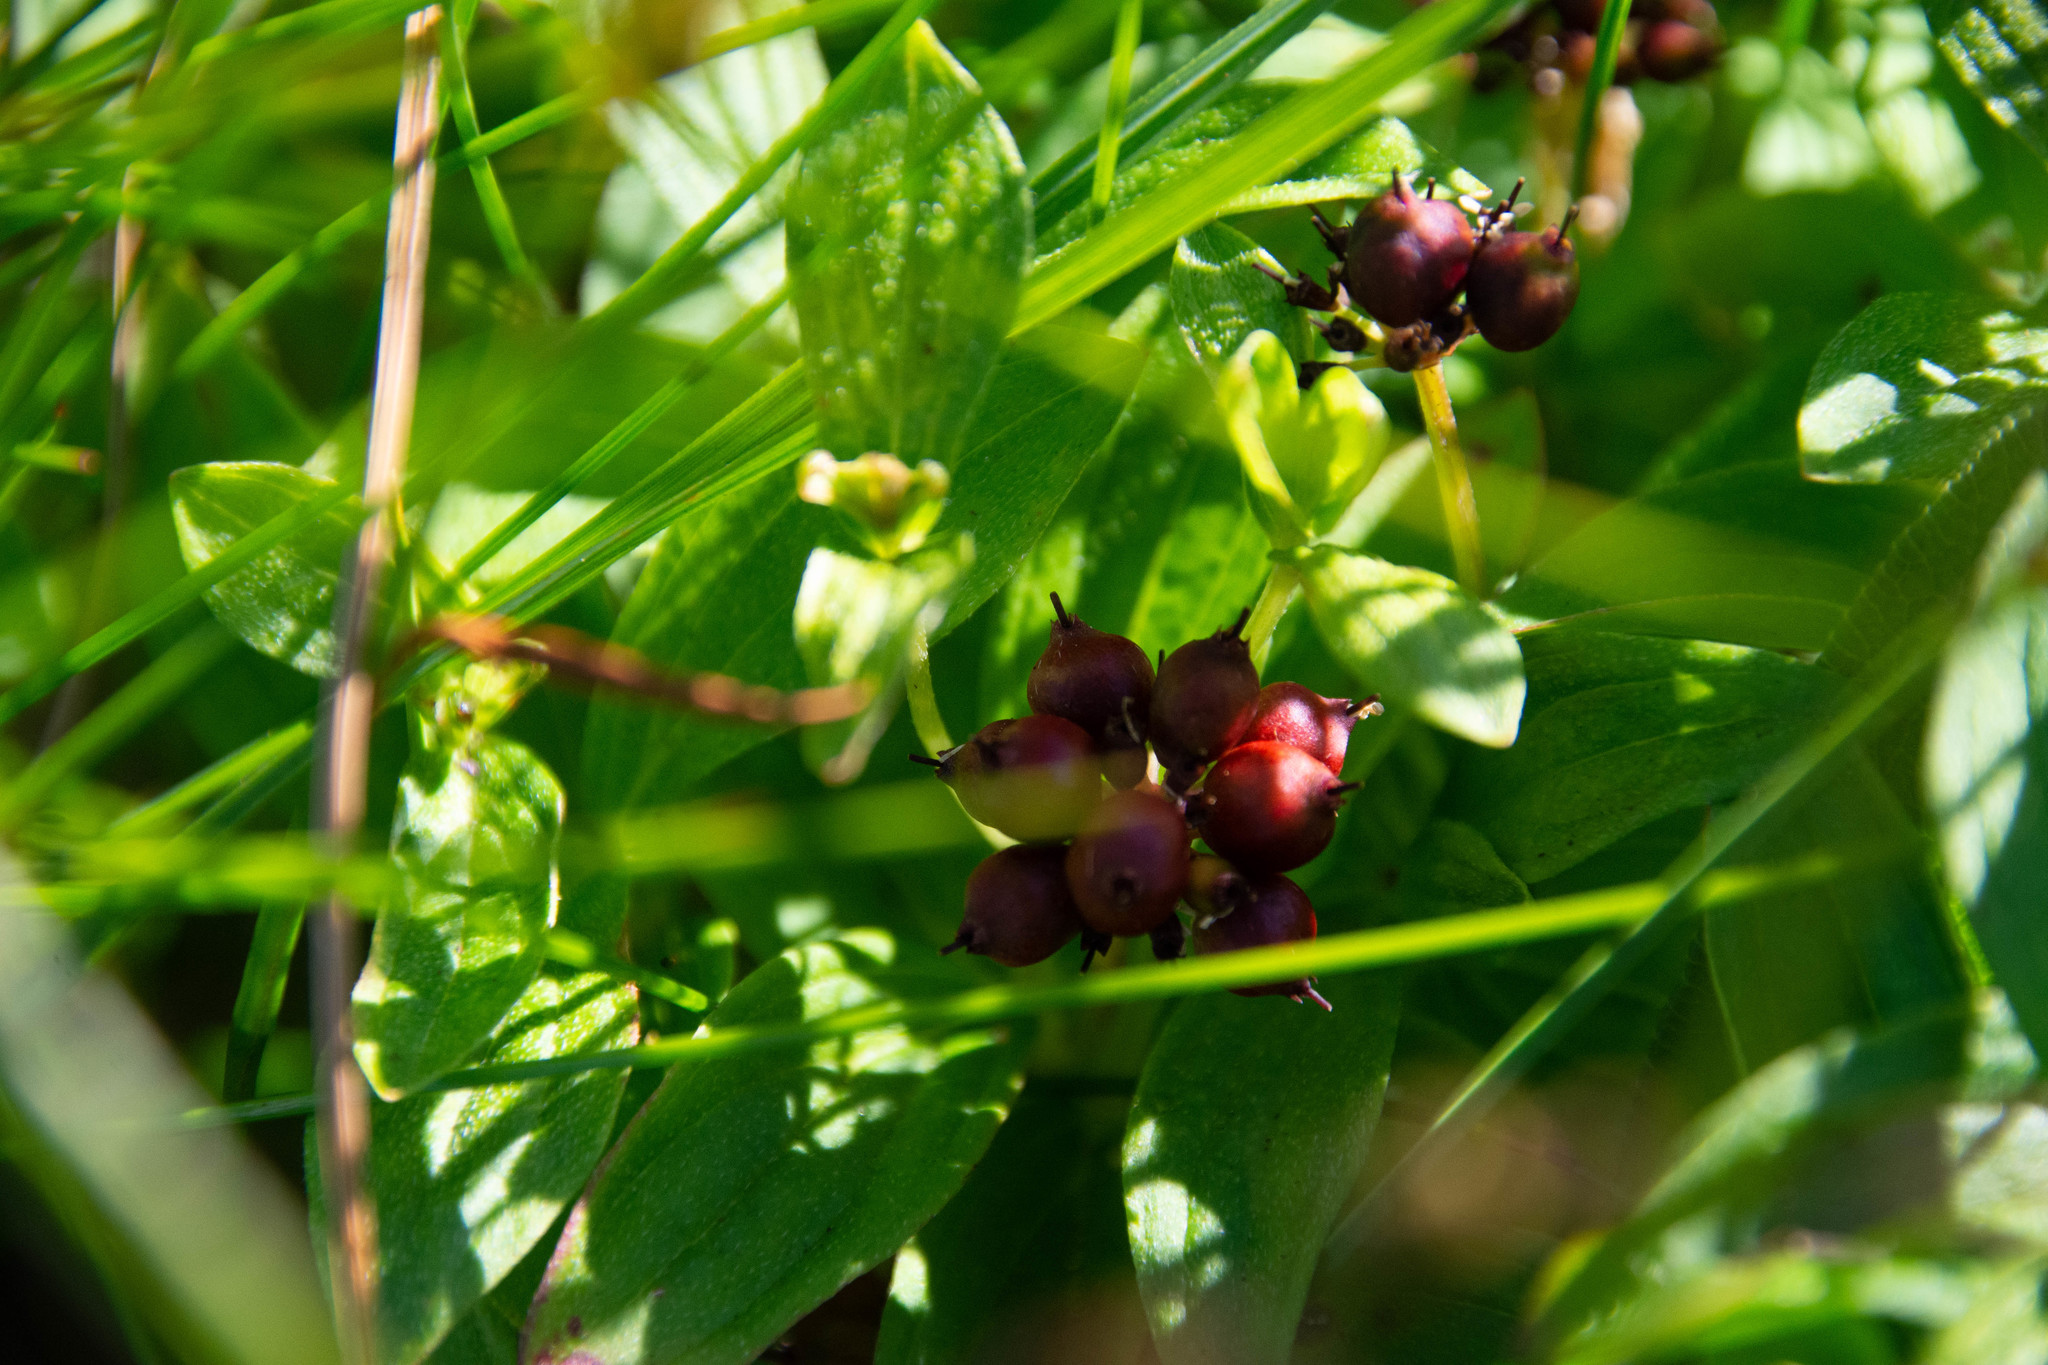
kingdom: Plantae
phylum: Tracheophyta
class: Magnoliopsida
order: Cornales
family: Cornaceae
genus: Cornus
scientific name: Cornus suecica
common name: Dwarf cornel
